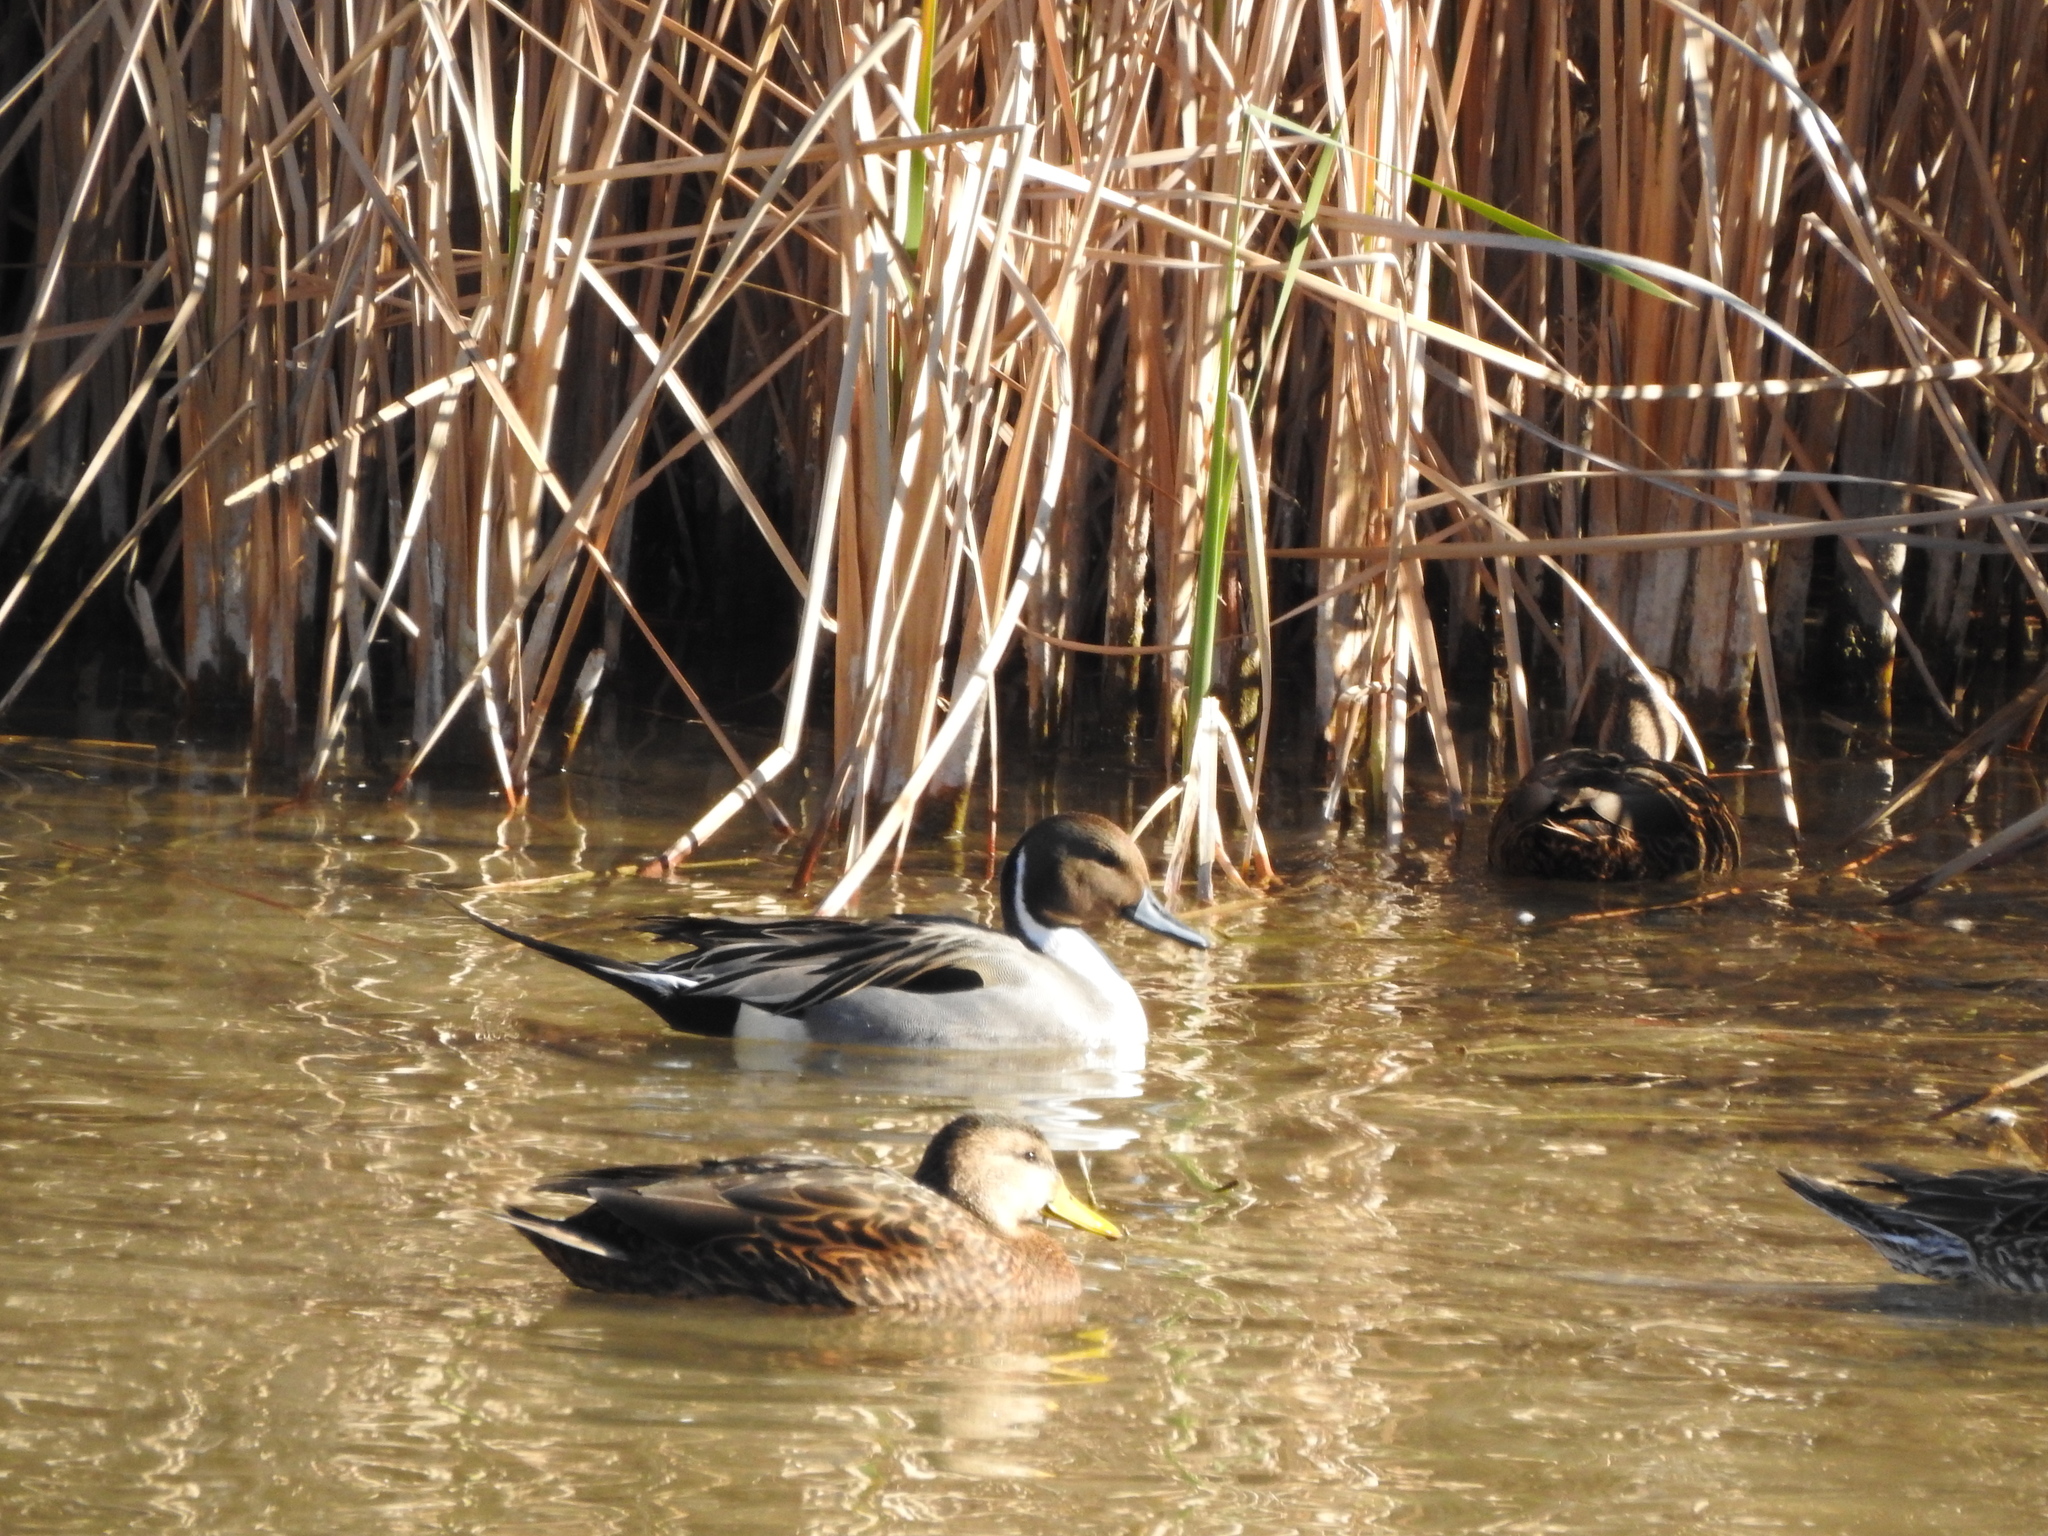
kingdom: Animalia
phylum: Chordata
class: Aves
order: Anseriformes
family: Anatidae
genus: Anas
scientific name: Anas acuta
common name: Northern pintail
